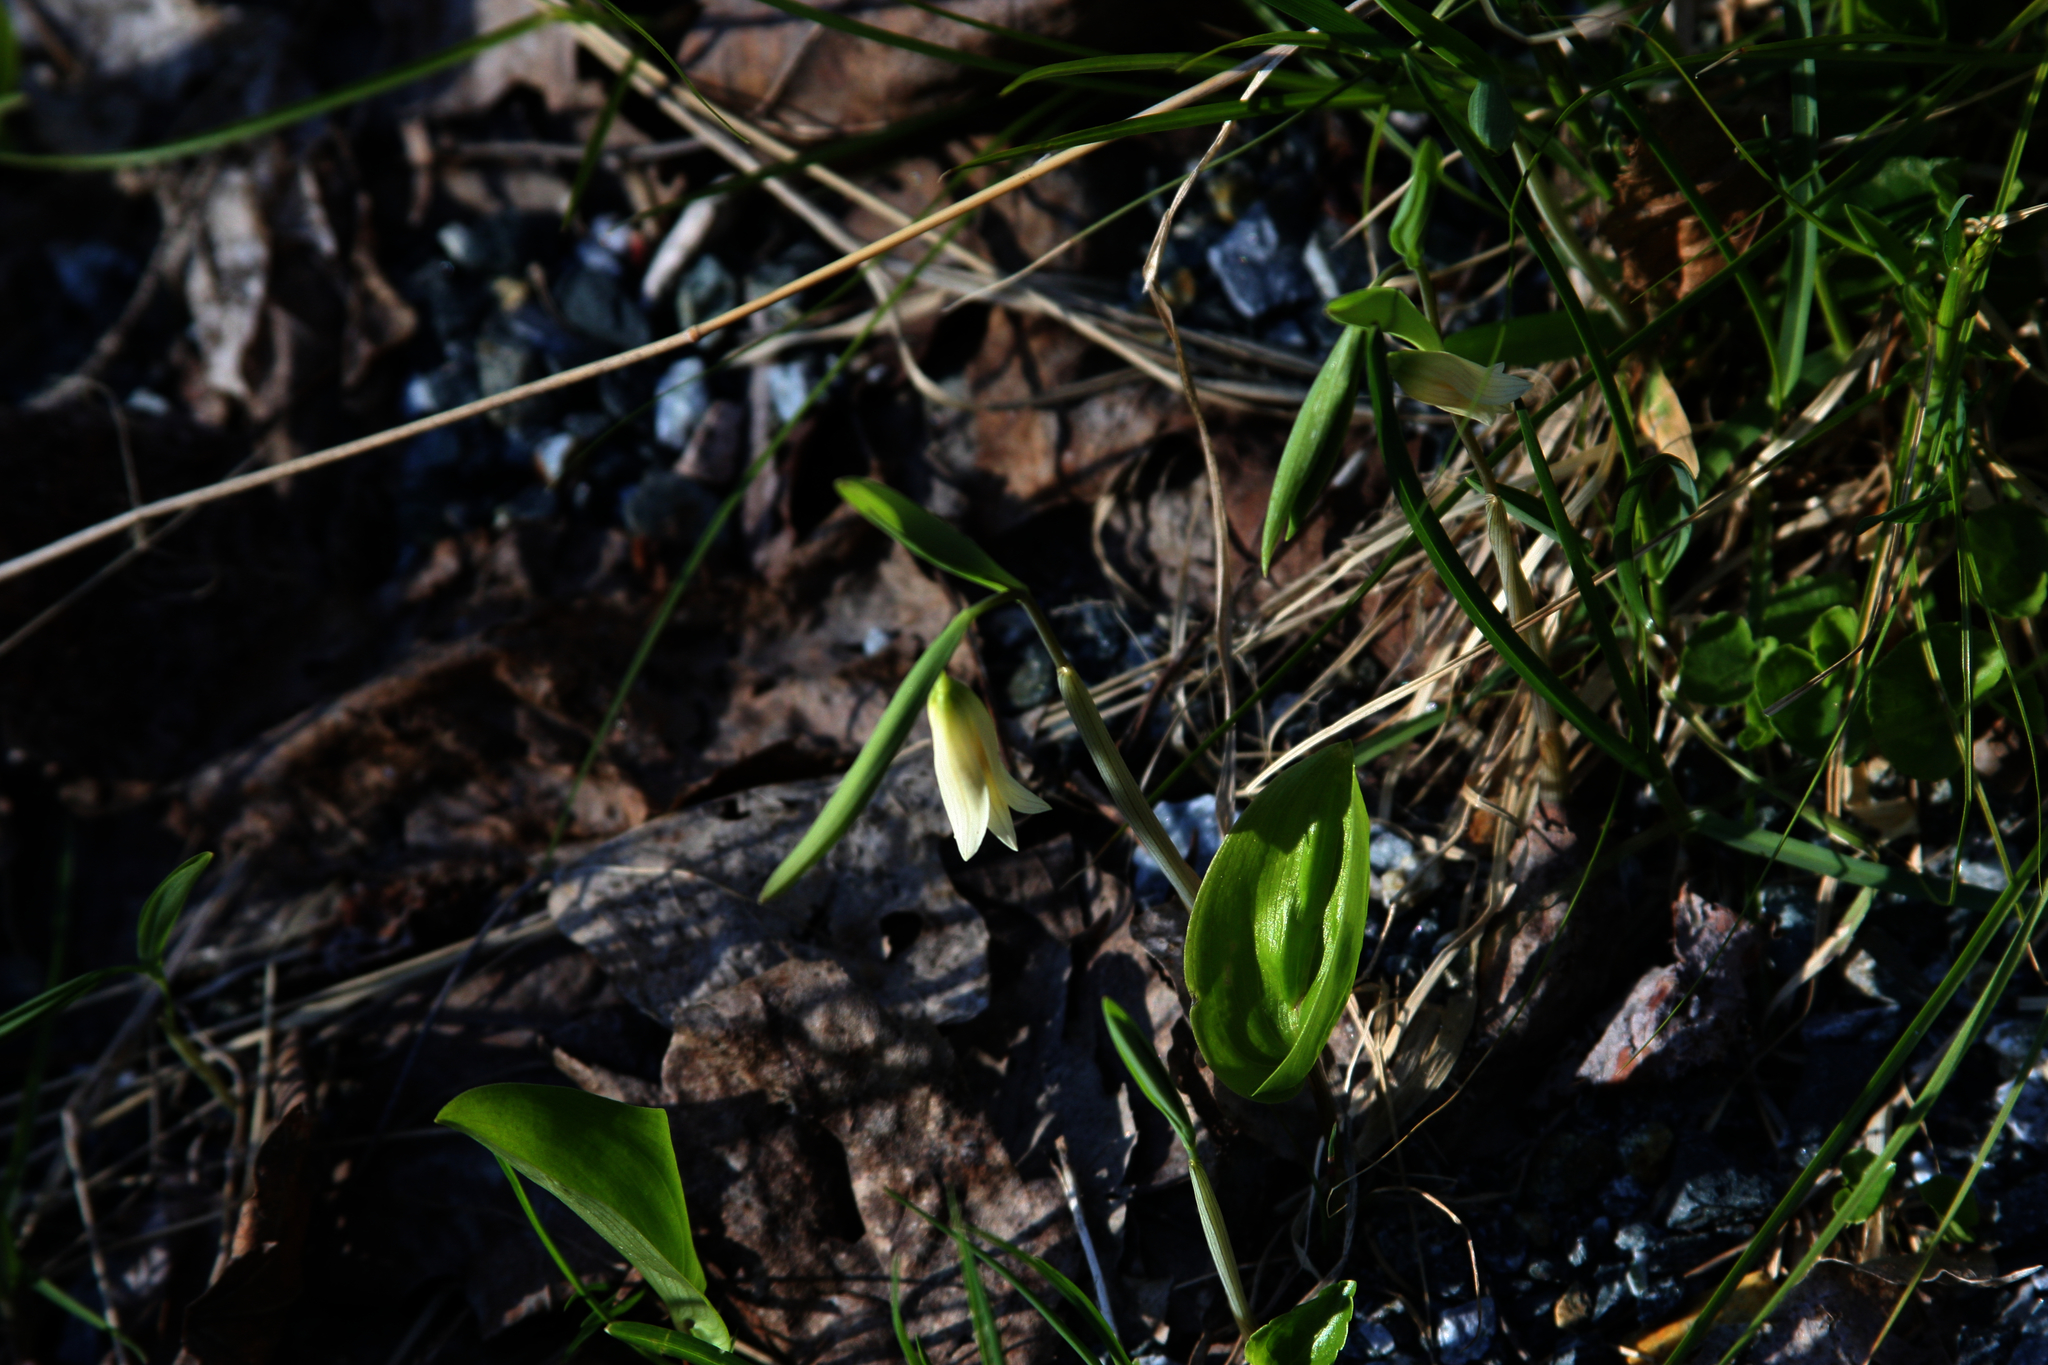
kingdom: Plantae
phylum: Tracheophyta
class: Liliopsida
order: Liliales
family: Colchicaceae
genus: Uvularia
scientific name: Uvularia sessilifolia
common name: Straw-lily
